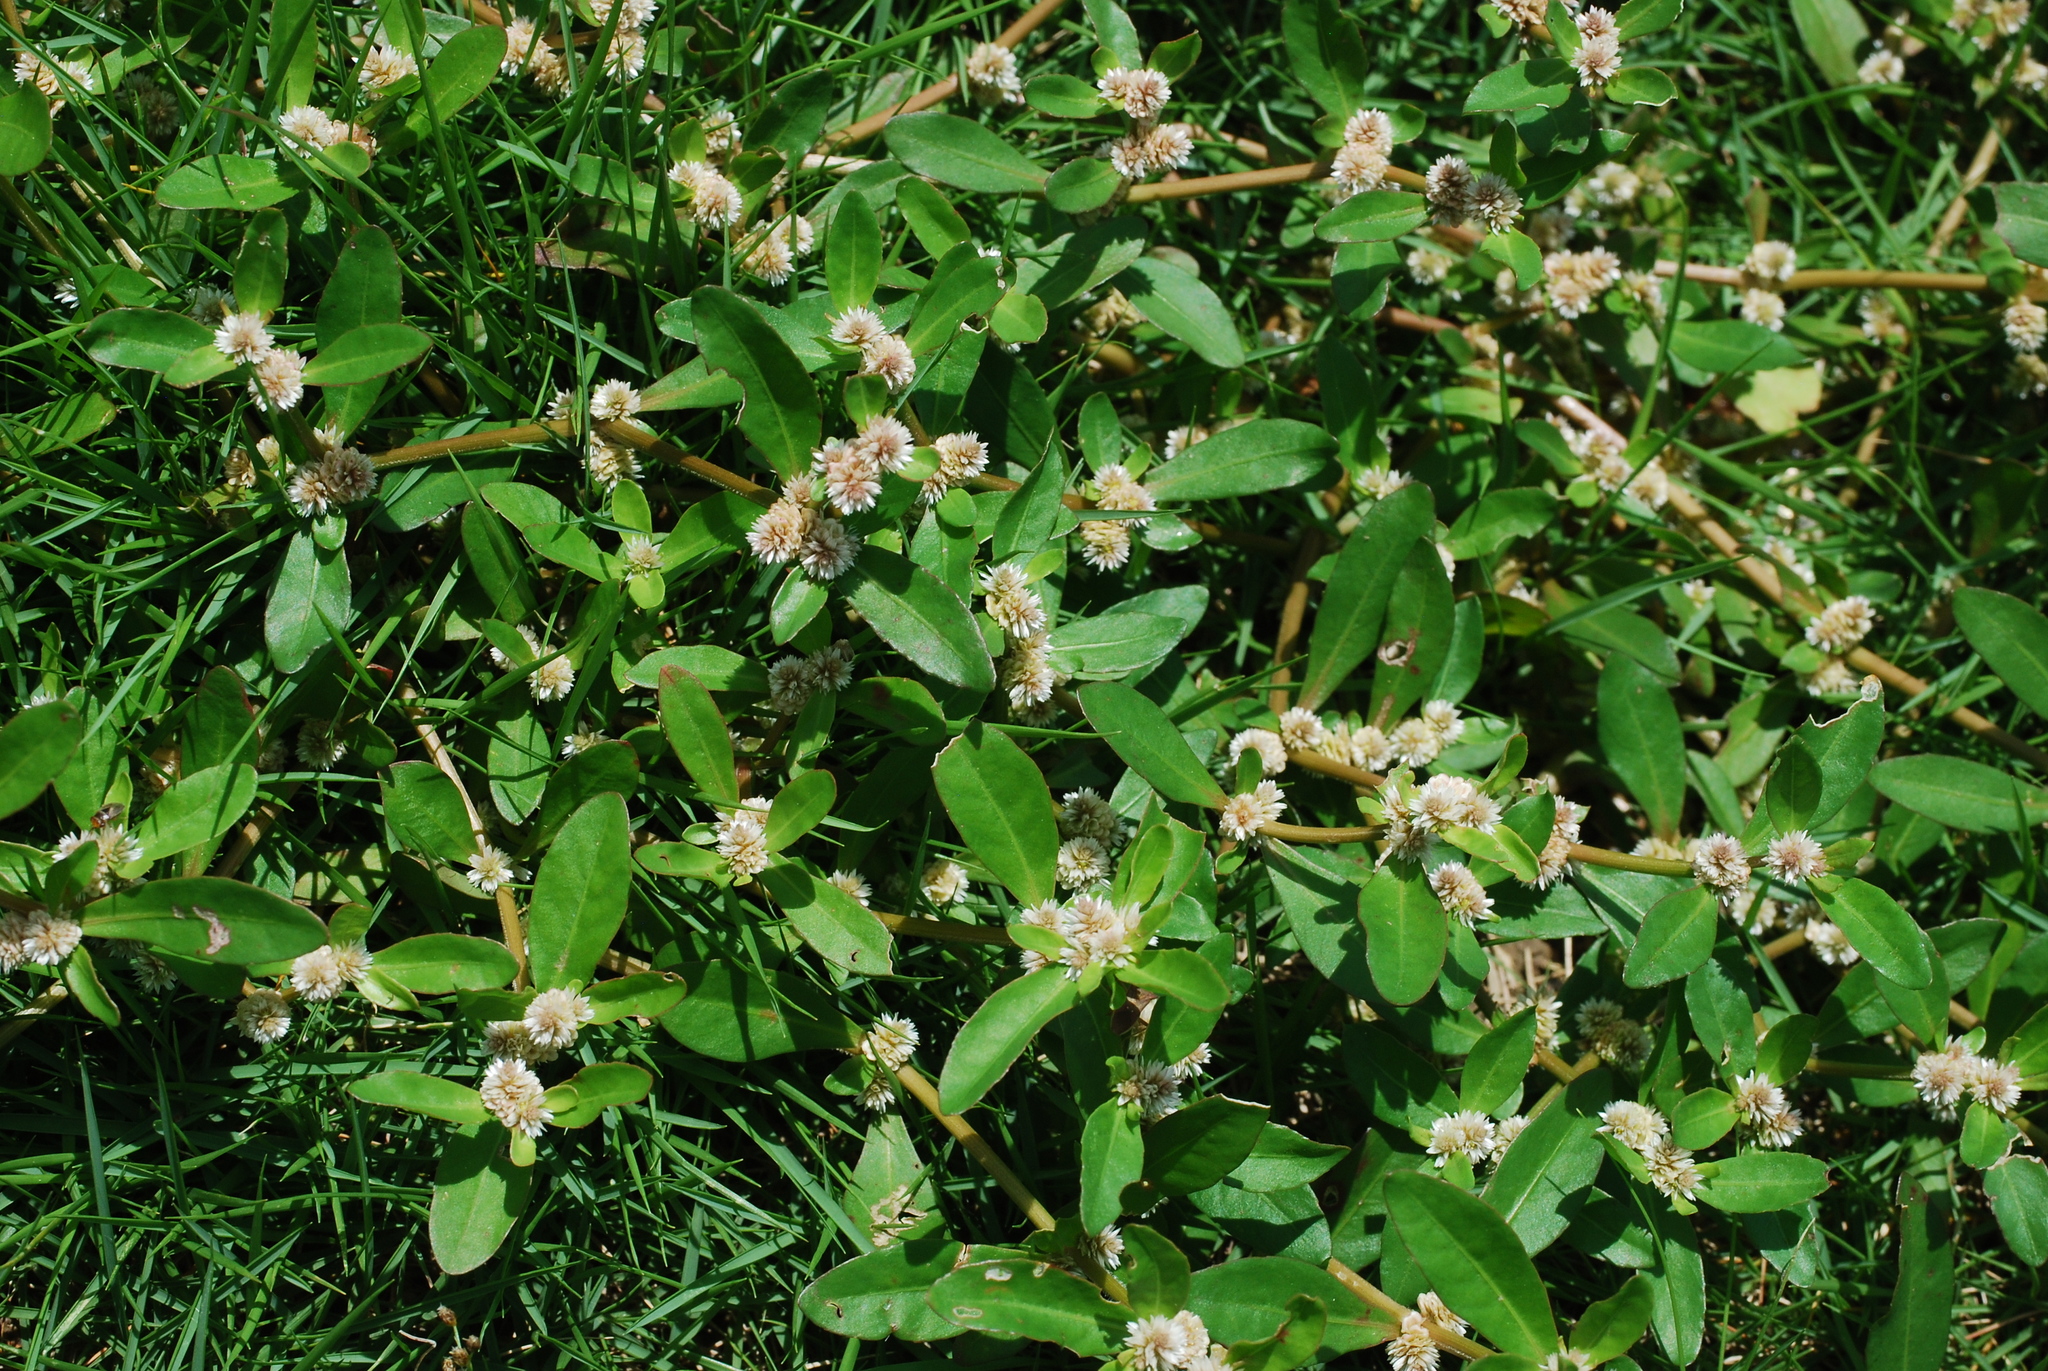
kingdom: Plantae
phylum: Tracheophyta
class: Magnoliopsida
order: Caryophyllales
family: Amaranthaceae
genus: Alternanthera
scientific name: Alternanthera philoxeroides
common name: Alligatorweed
